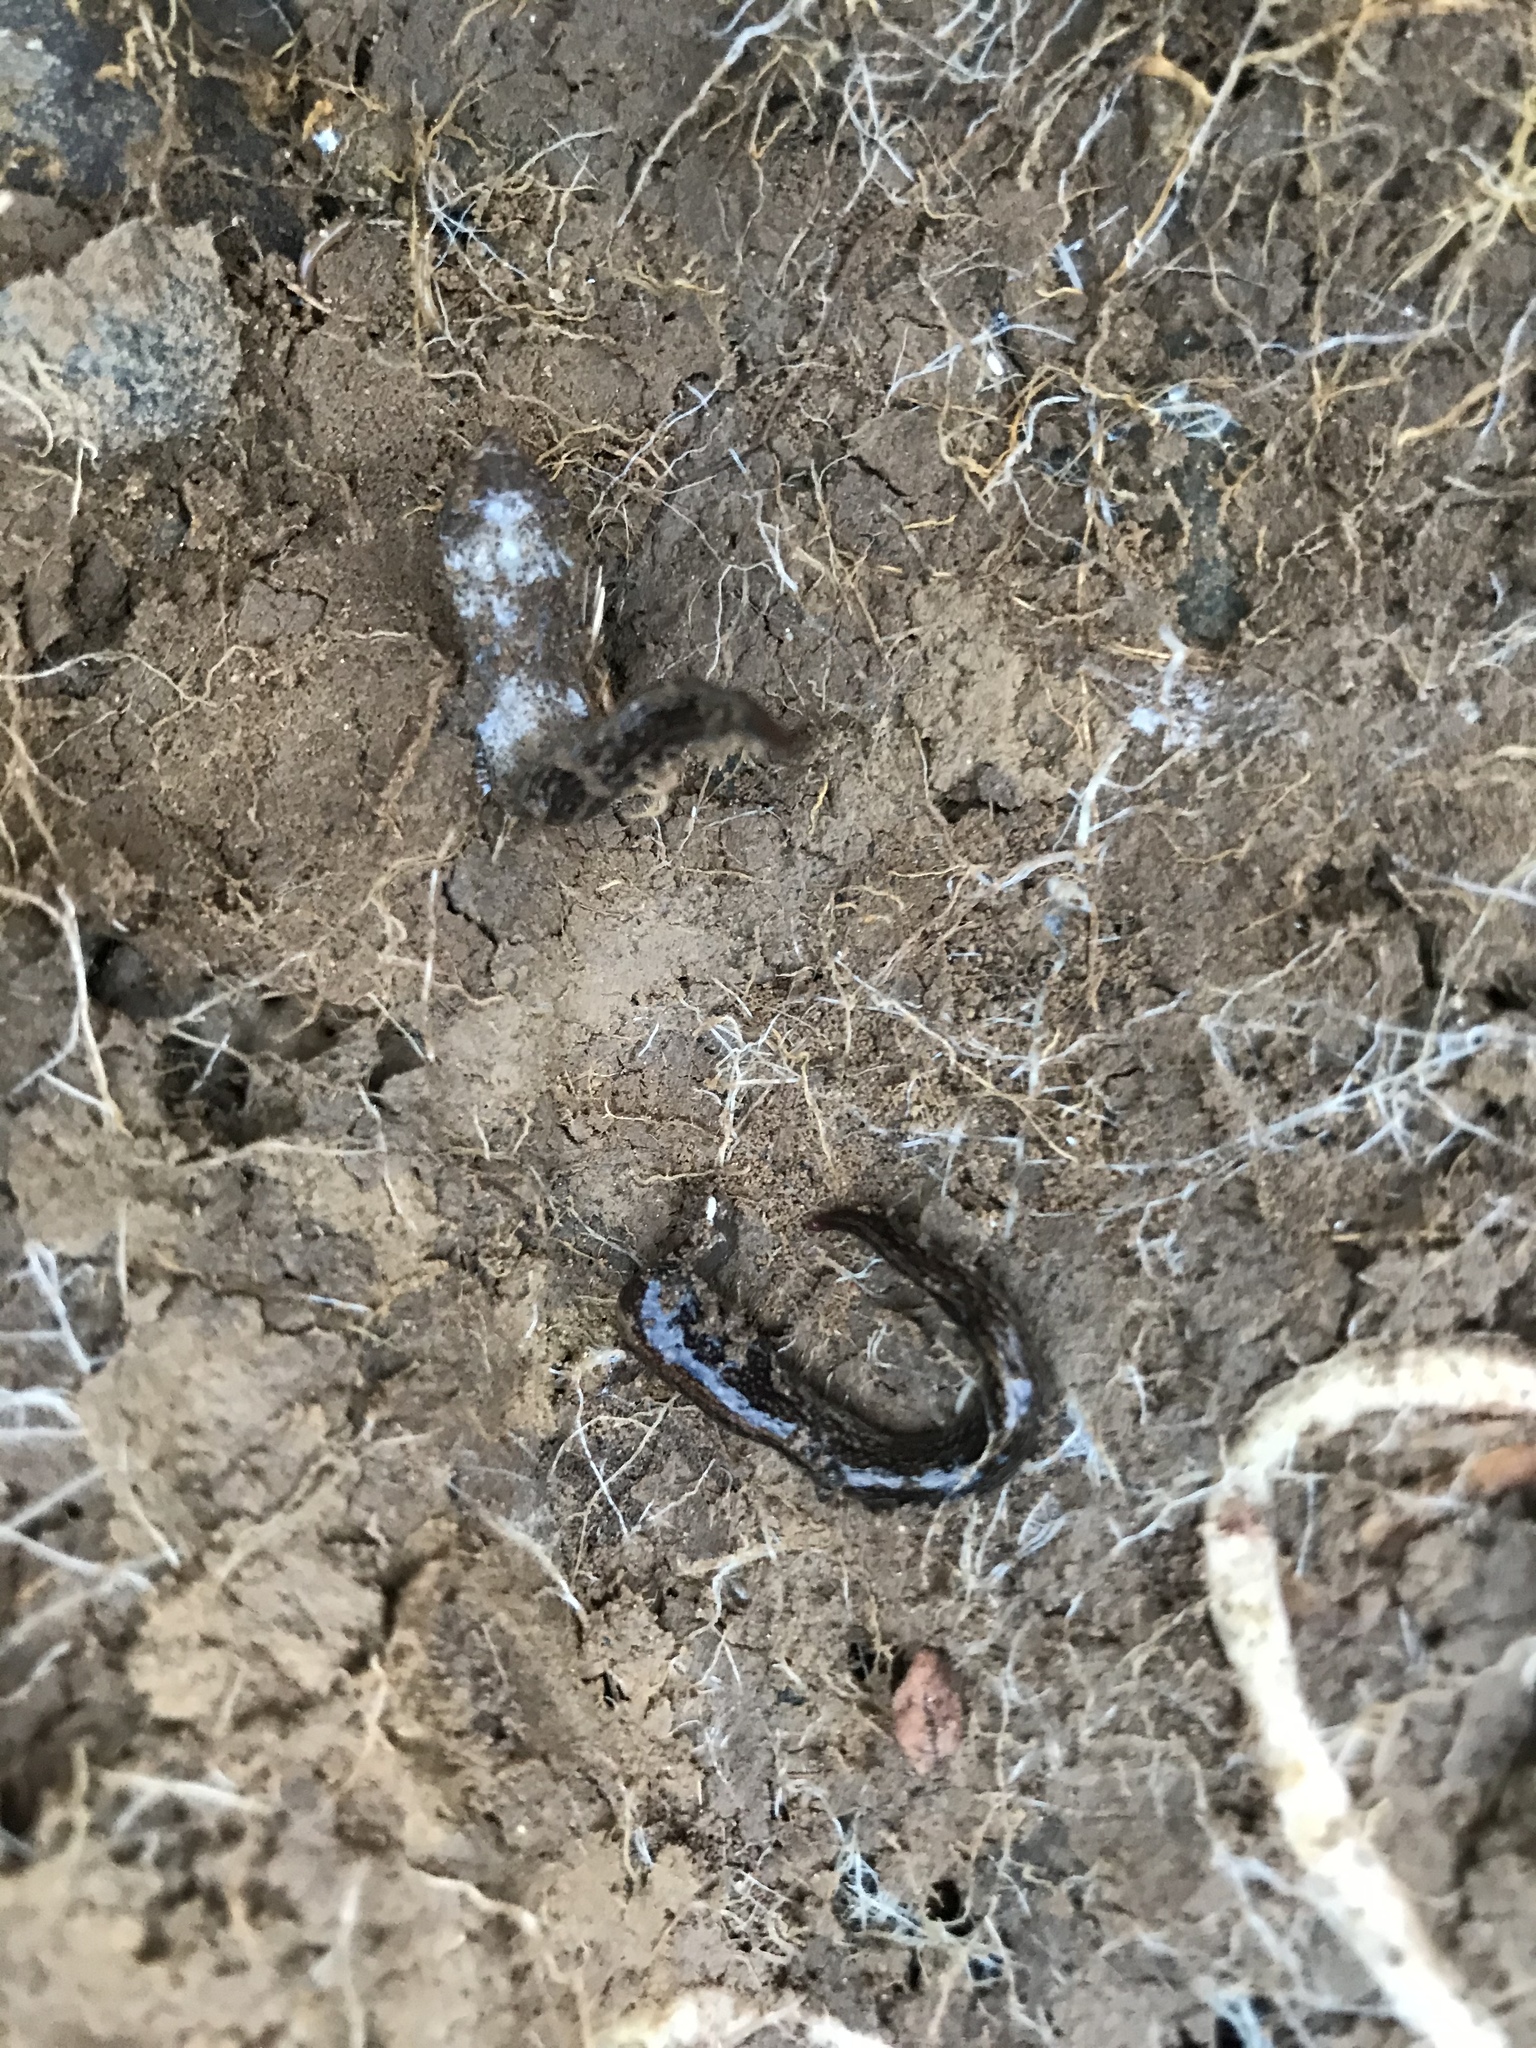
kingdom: Animalia
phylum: Platyhelminthes
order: Tricladida
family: Geoplanidae
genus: Newzealandia
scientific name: Newzealandia graffii
